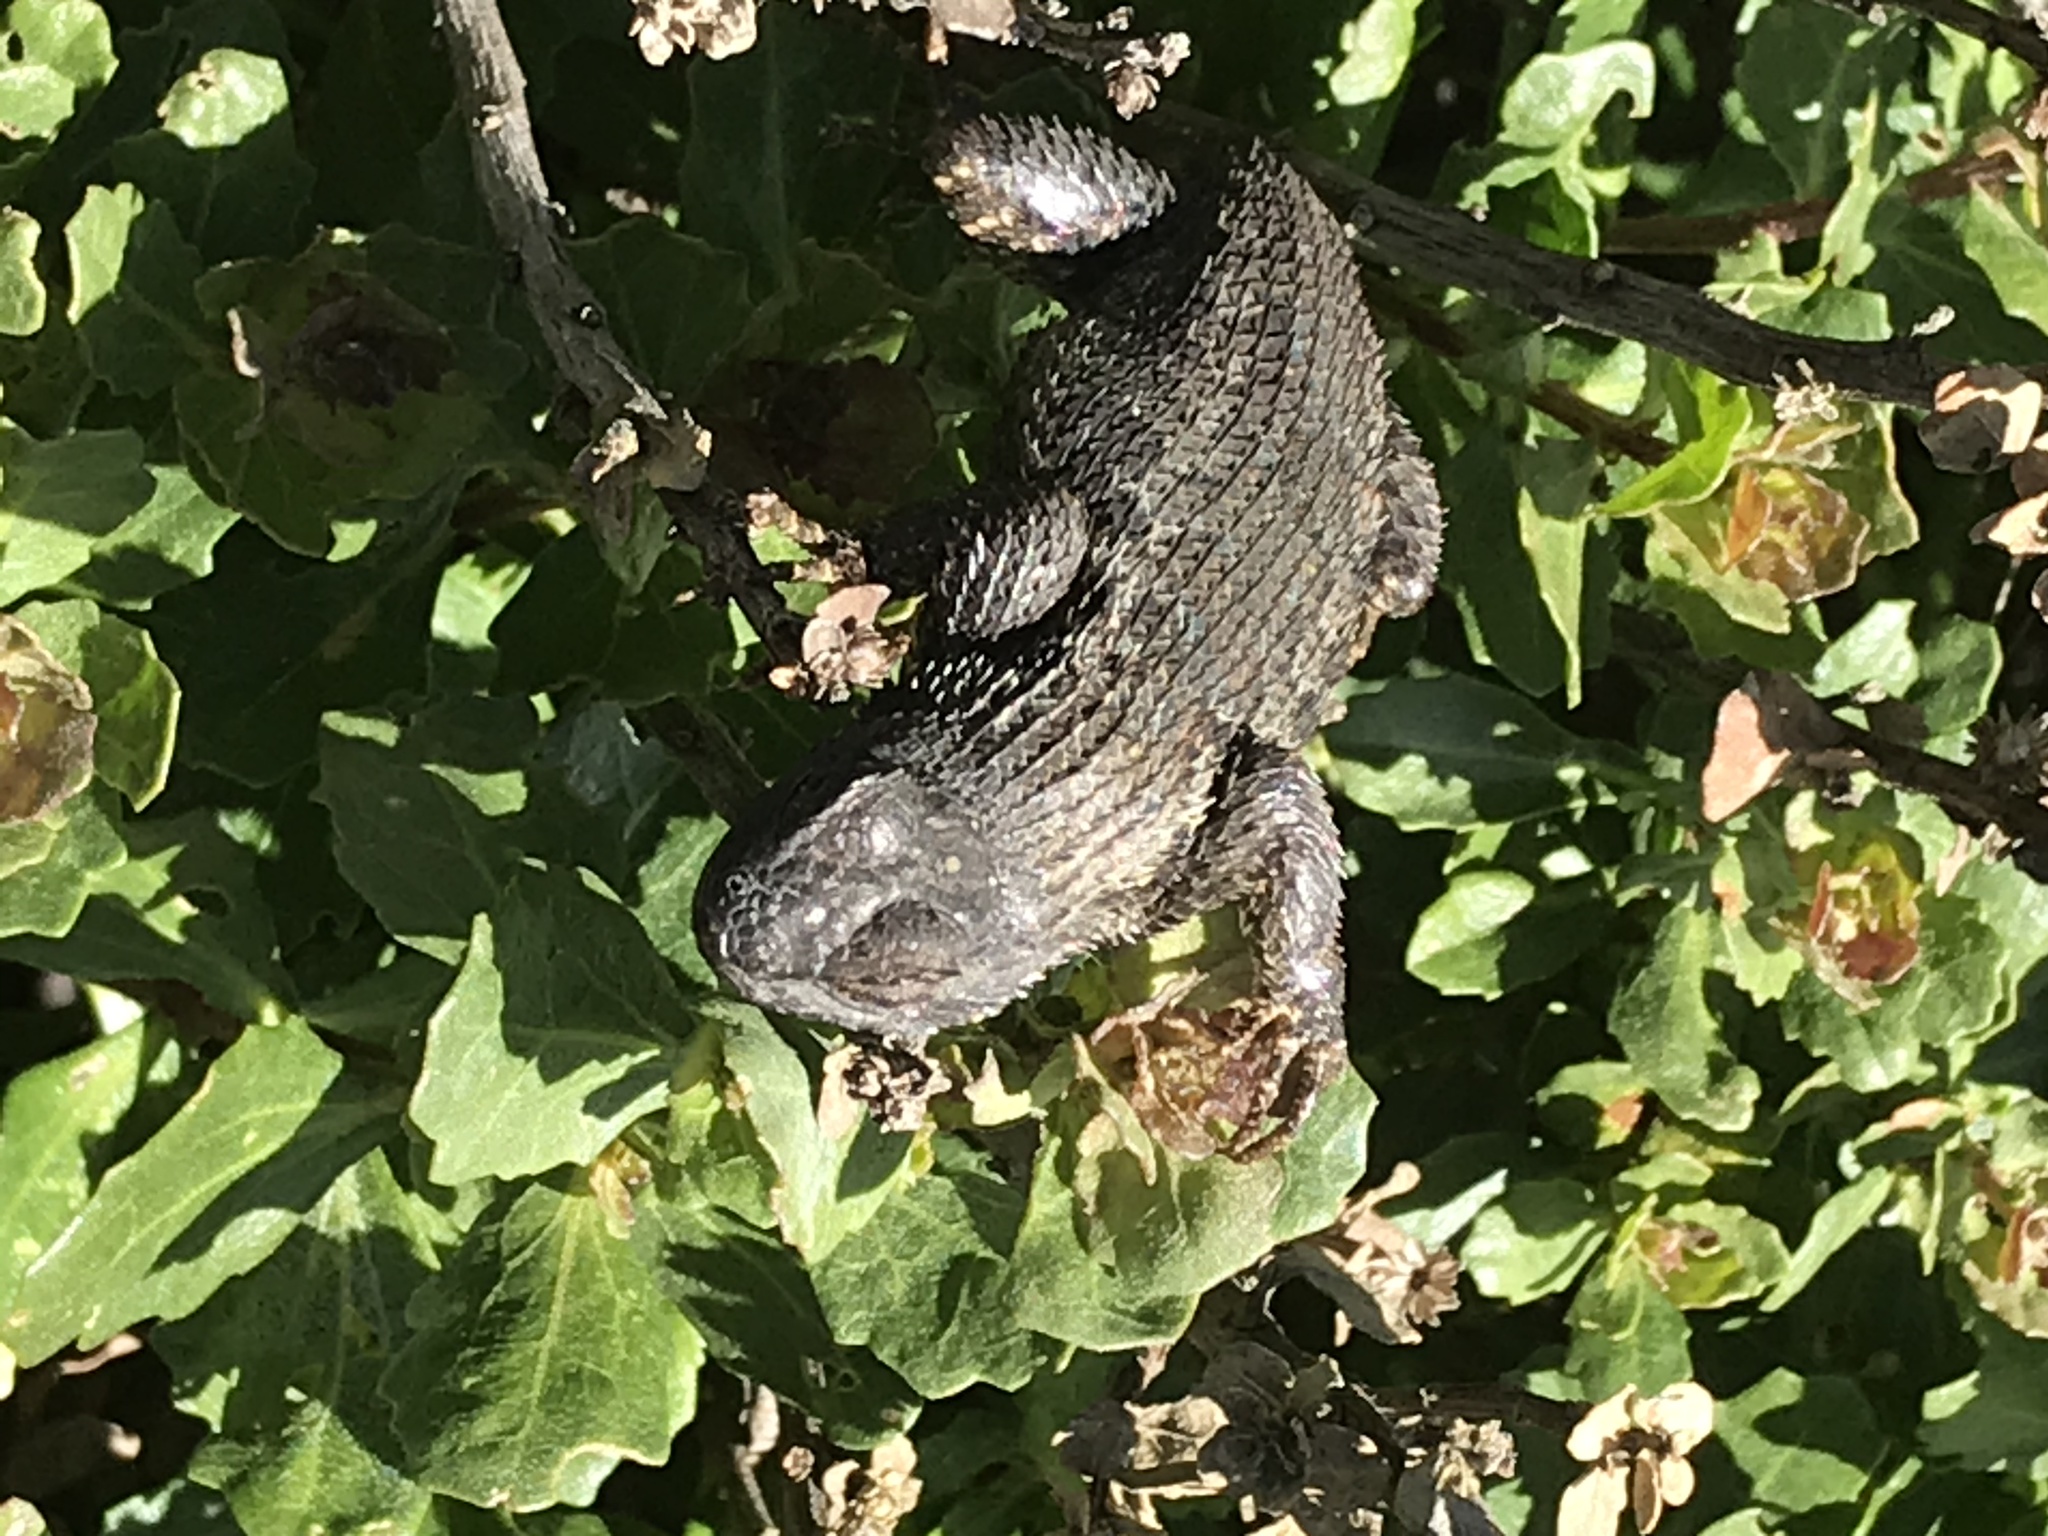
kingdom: Animalia
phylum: Chordata
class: Squamata
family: Phrynosomatidae
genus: Sceloporus
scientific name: Sceloporus occidentalis
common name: Western fence lizard
